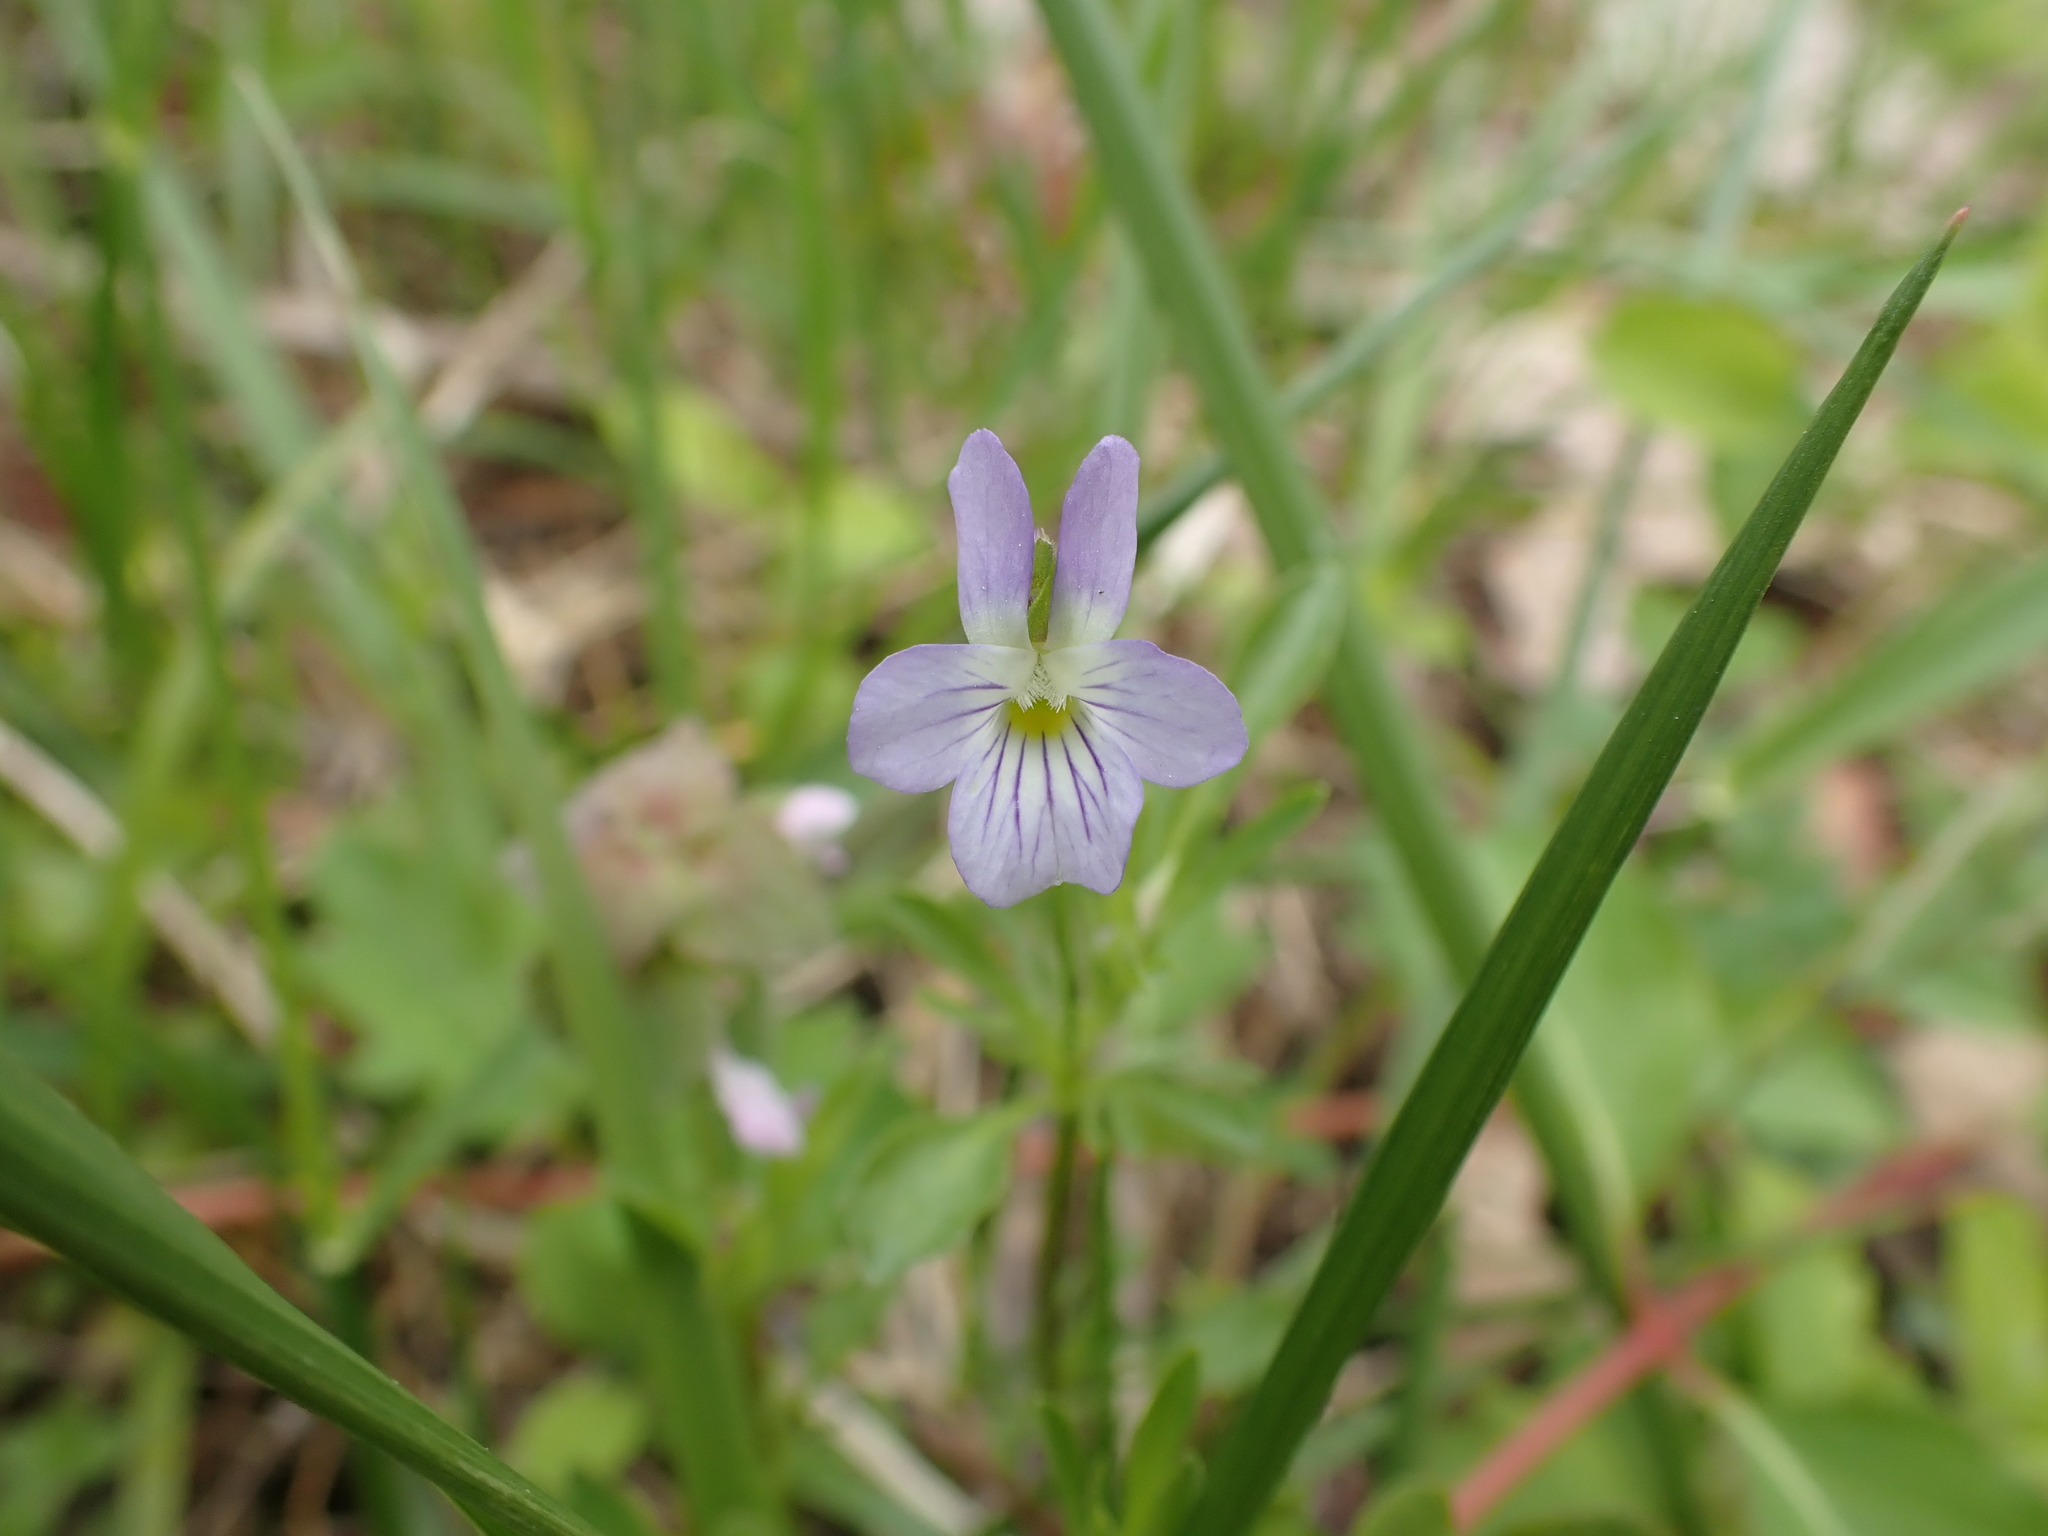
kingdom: Plantae
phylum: Tracheophyta
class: Magnoliopsida
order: Malpighiales
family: Violaceae
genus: Viola
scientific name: Viola rafinesquei
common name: American field pansy
